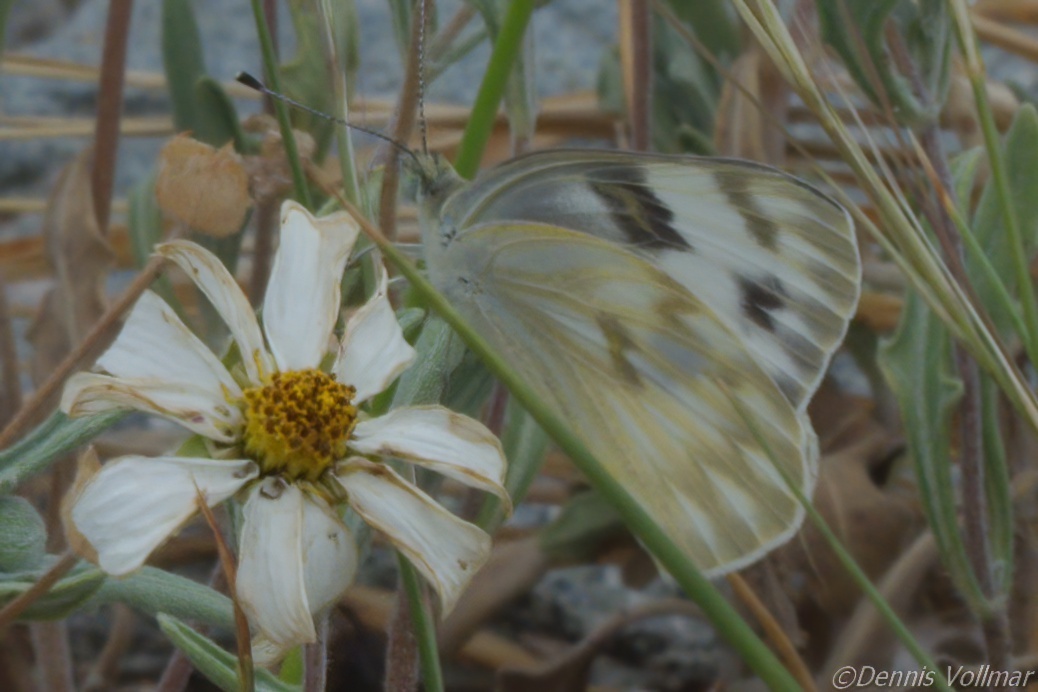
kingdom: Animalia
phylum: Arthropoda
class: Insecta
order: Lepidoptera
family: Pieridae
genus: Pontia
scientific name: Pontia protodice
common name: Checkered white
